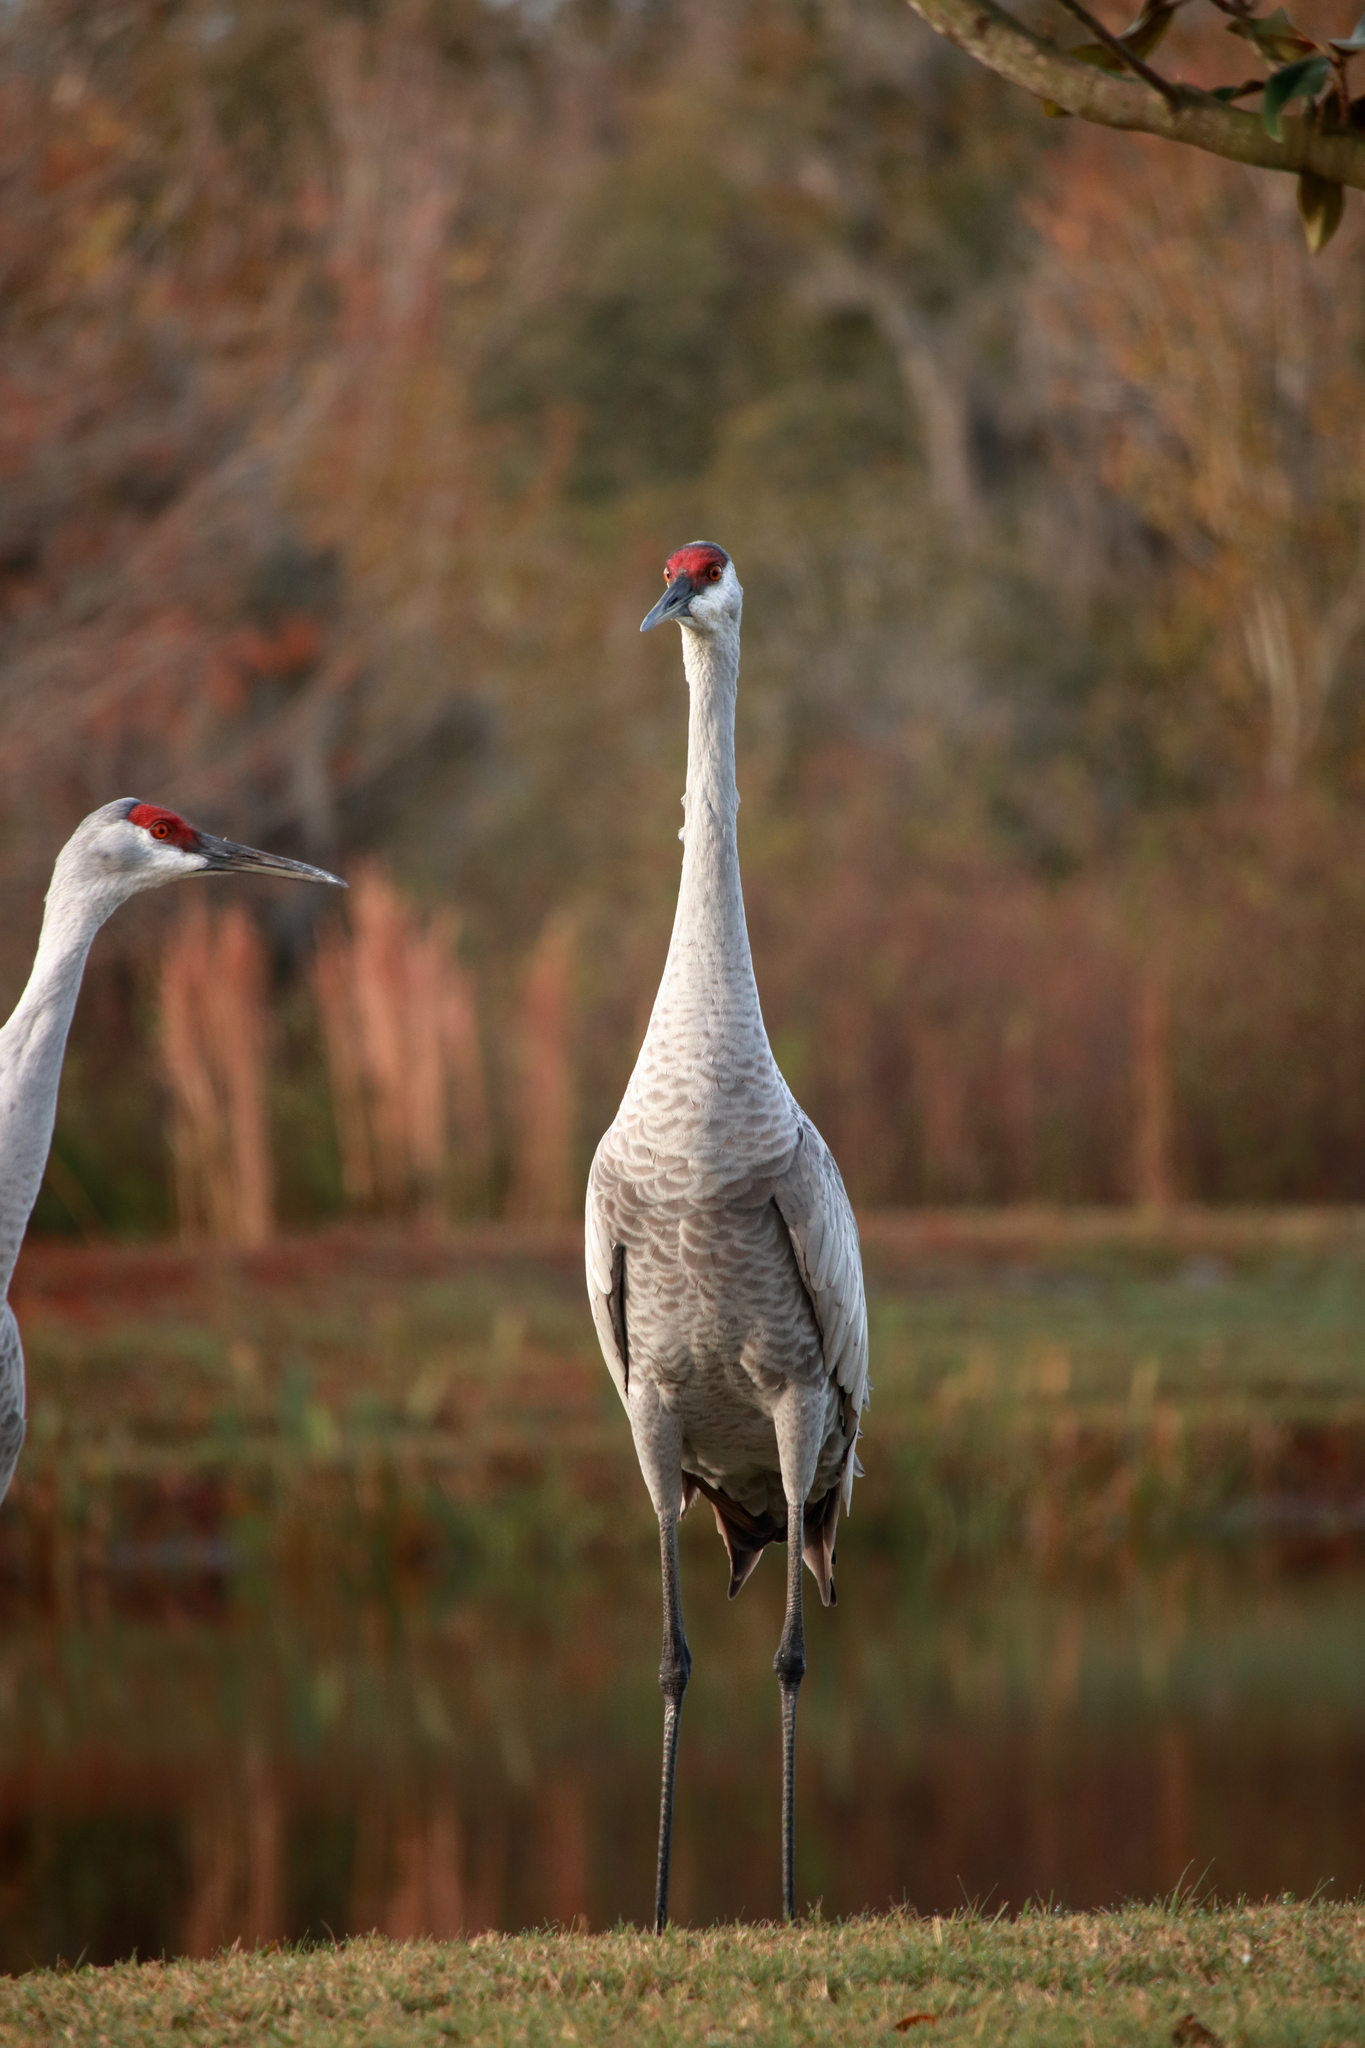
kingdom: Animalia
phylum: Chordata
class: Aves
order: Gruiformes
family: Gruidae
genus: Grus
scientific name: Grus canadensis
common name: Sandhill crane
